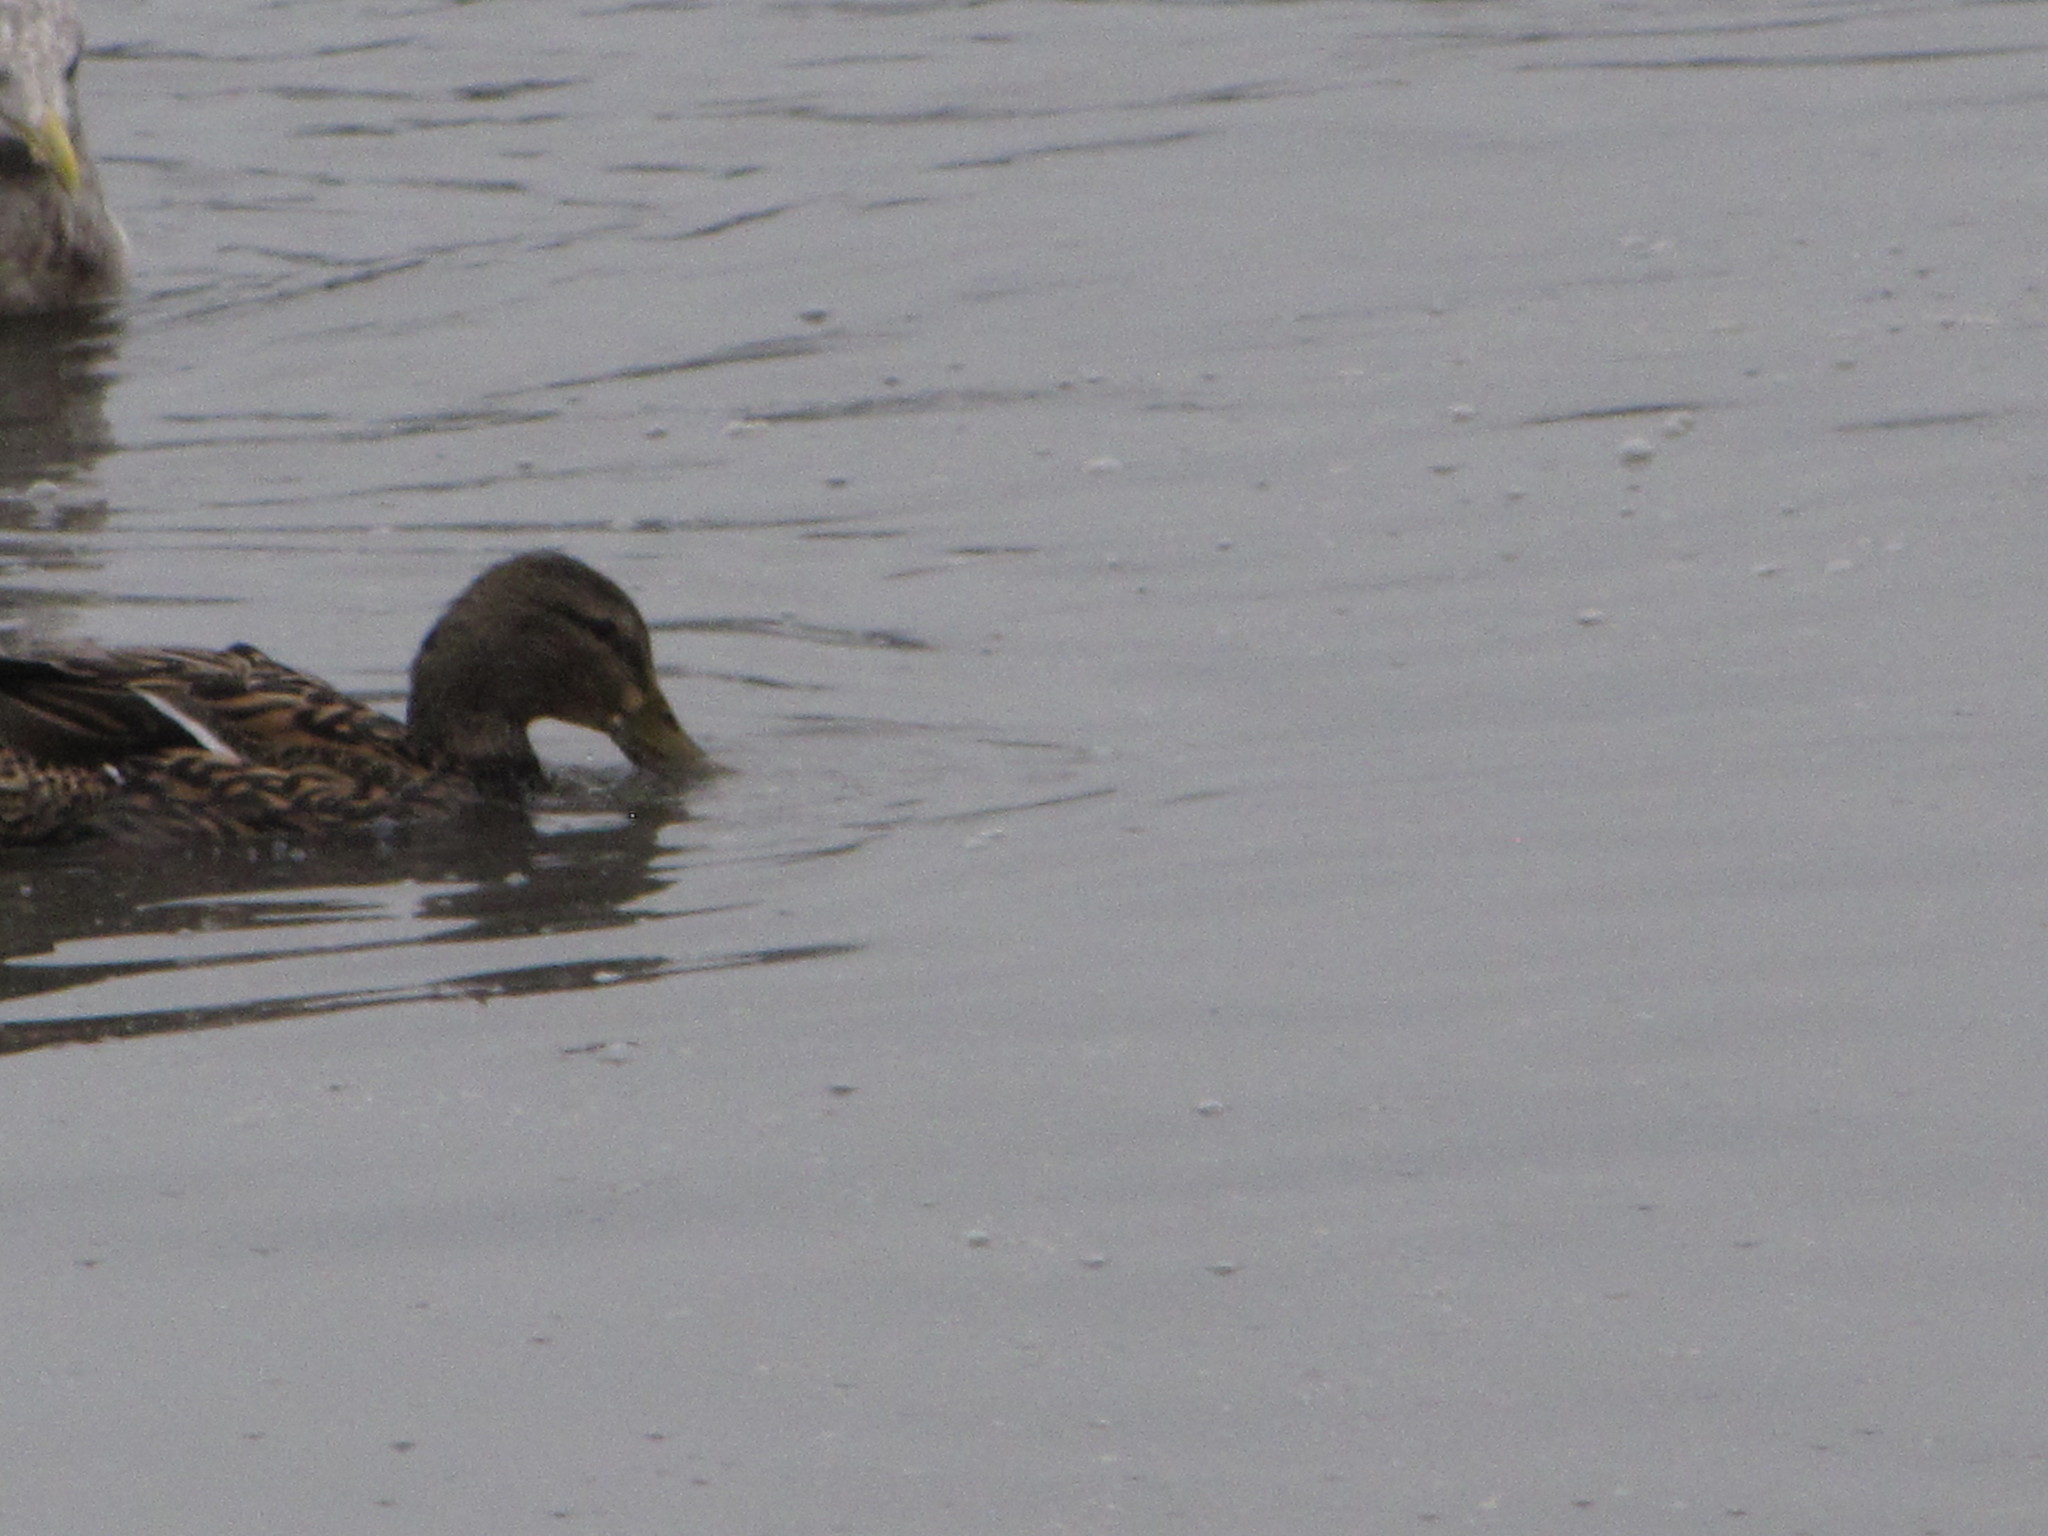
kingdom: Animalia
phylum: Chordata
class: Aves
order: Anseriformes
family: Anatidae
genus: Anas
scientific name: Anas platyrhynchos
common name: Mallard
